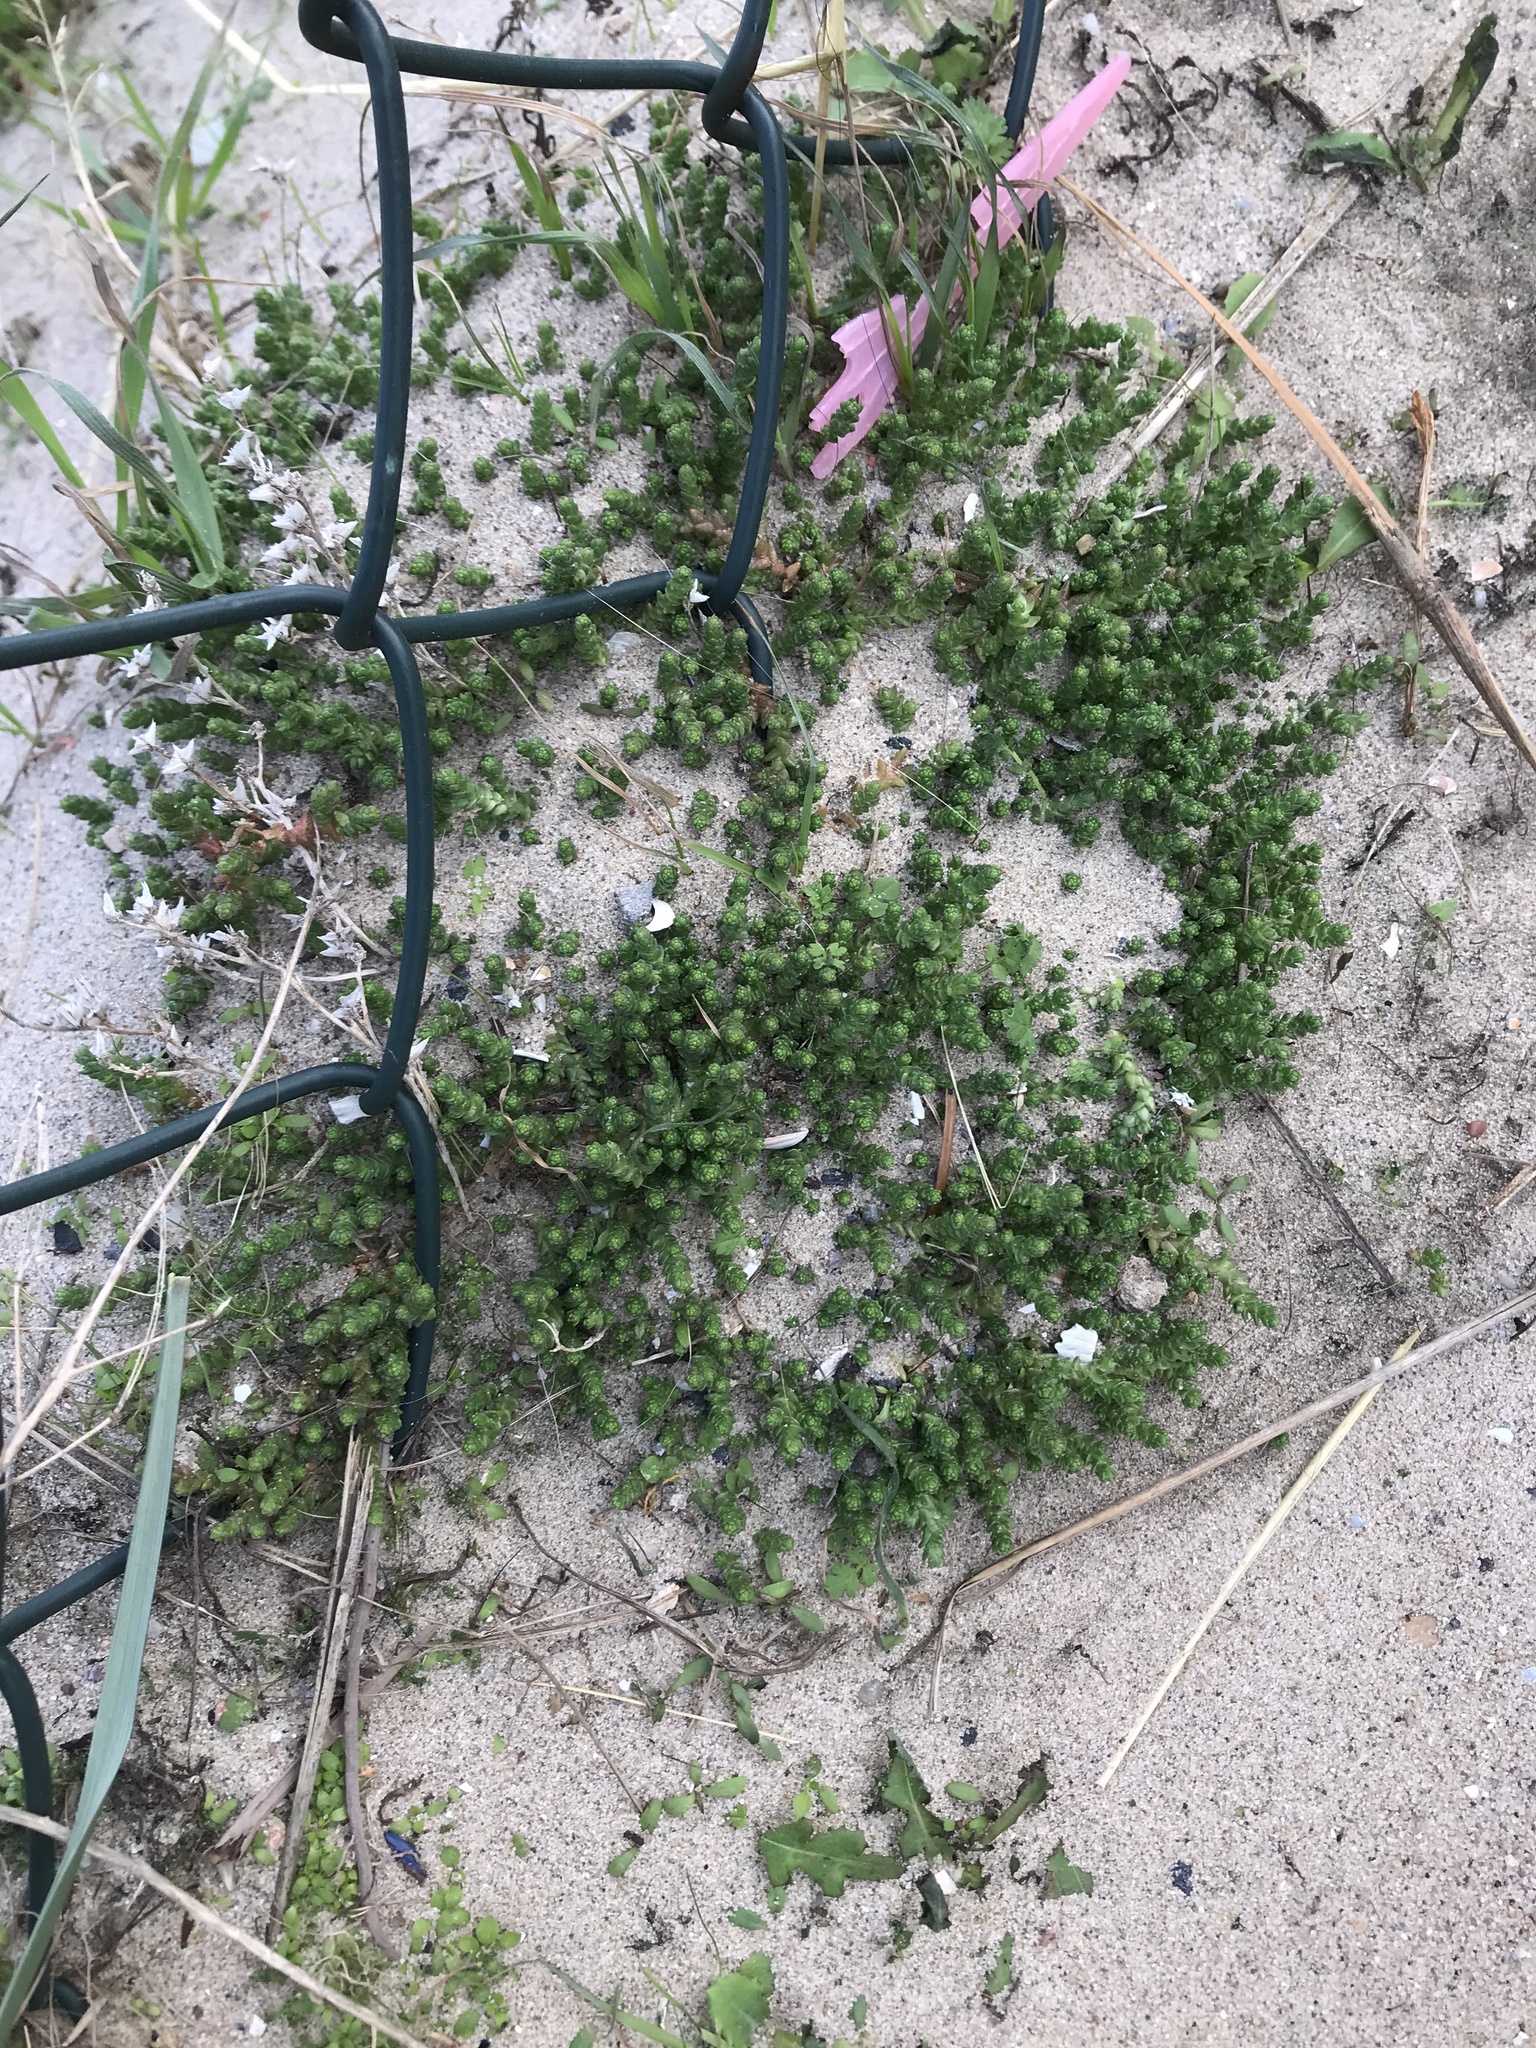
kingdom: Plantae
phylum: Tracheophyta
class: Magnoliopsida
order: Saxifragales
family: Crassulaceae
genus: Sedum
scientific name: Sedum acre
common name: Biting stonecrop
